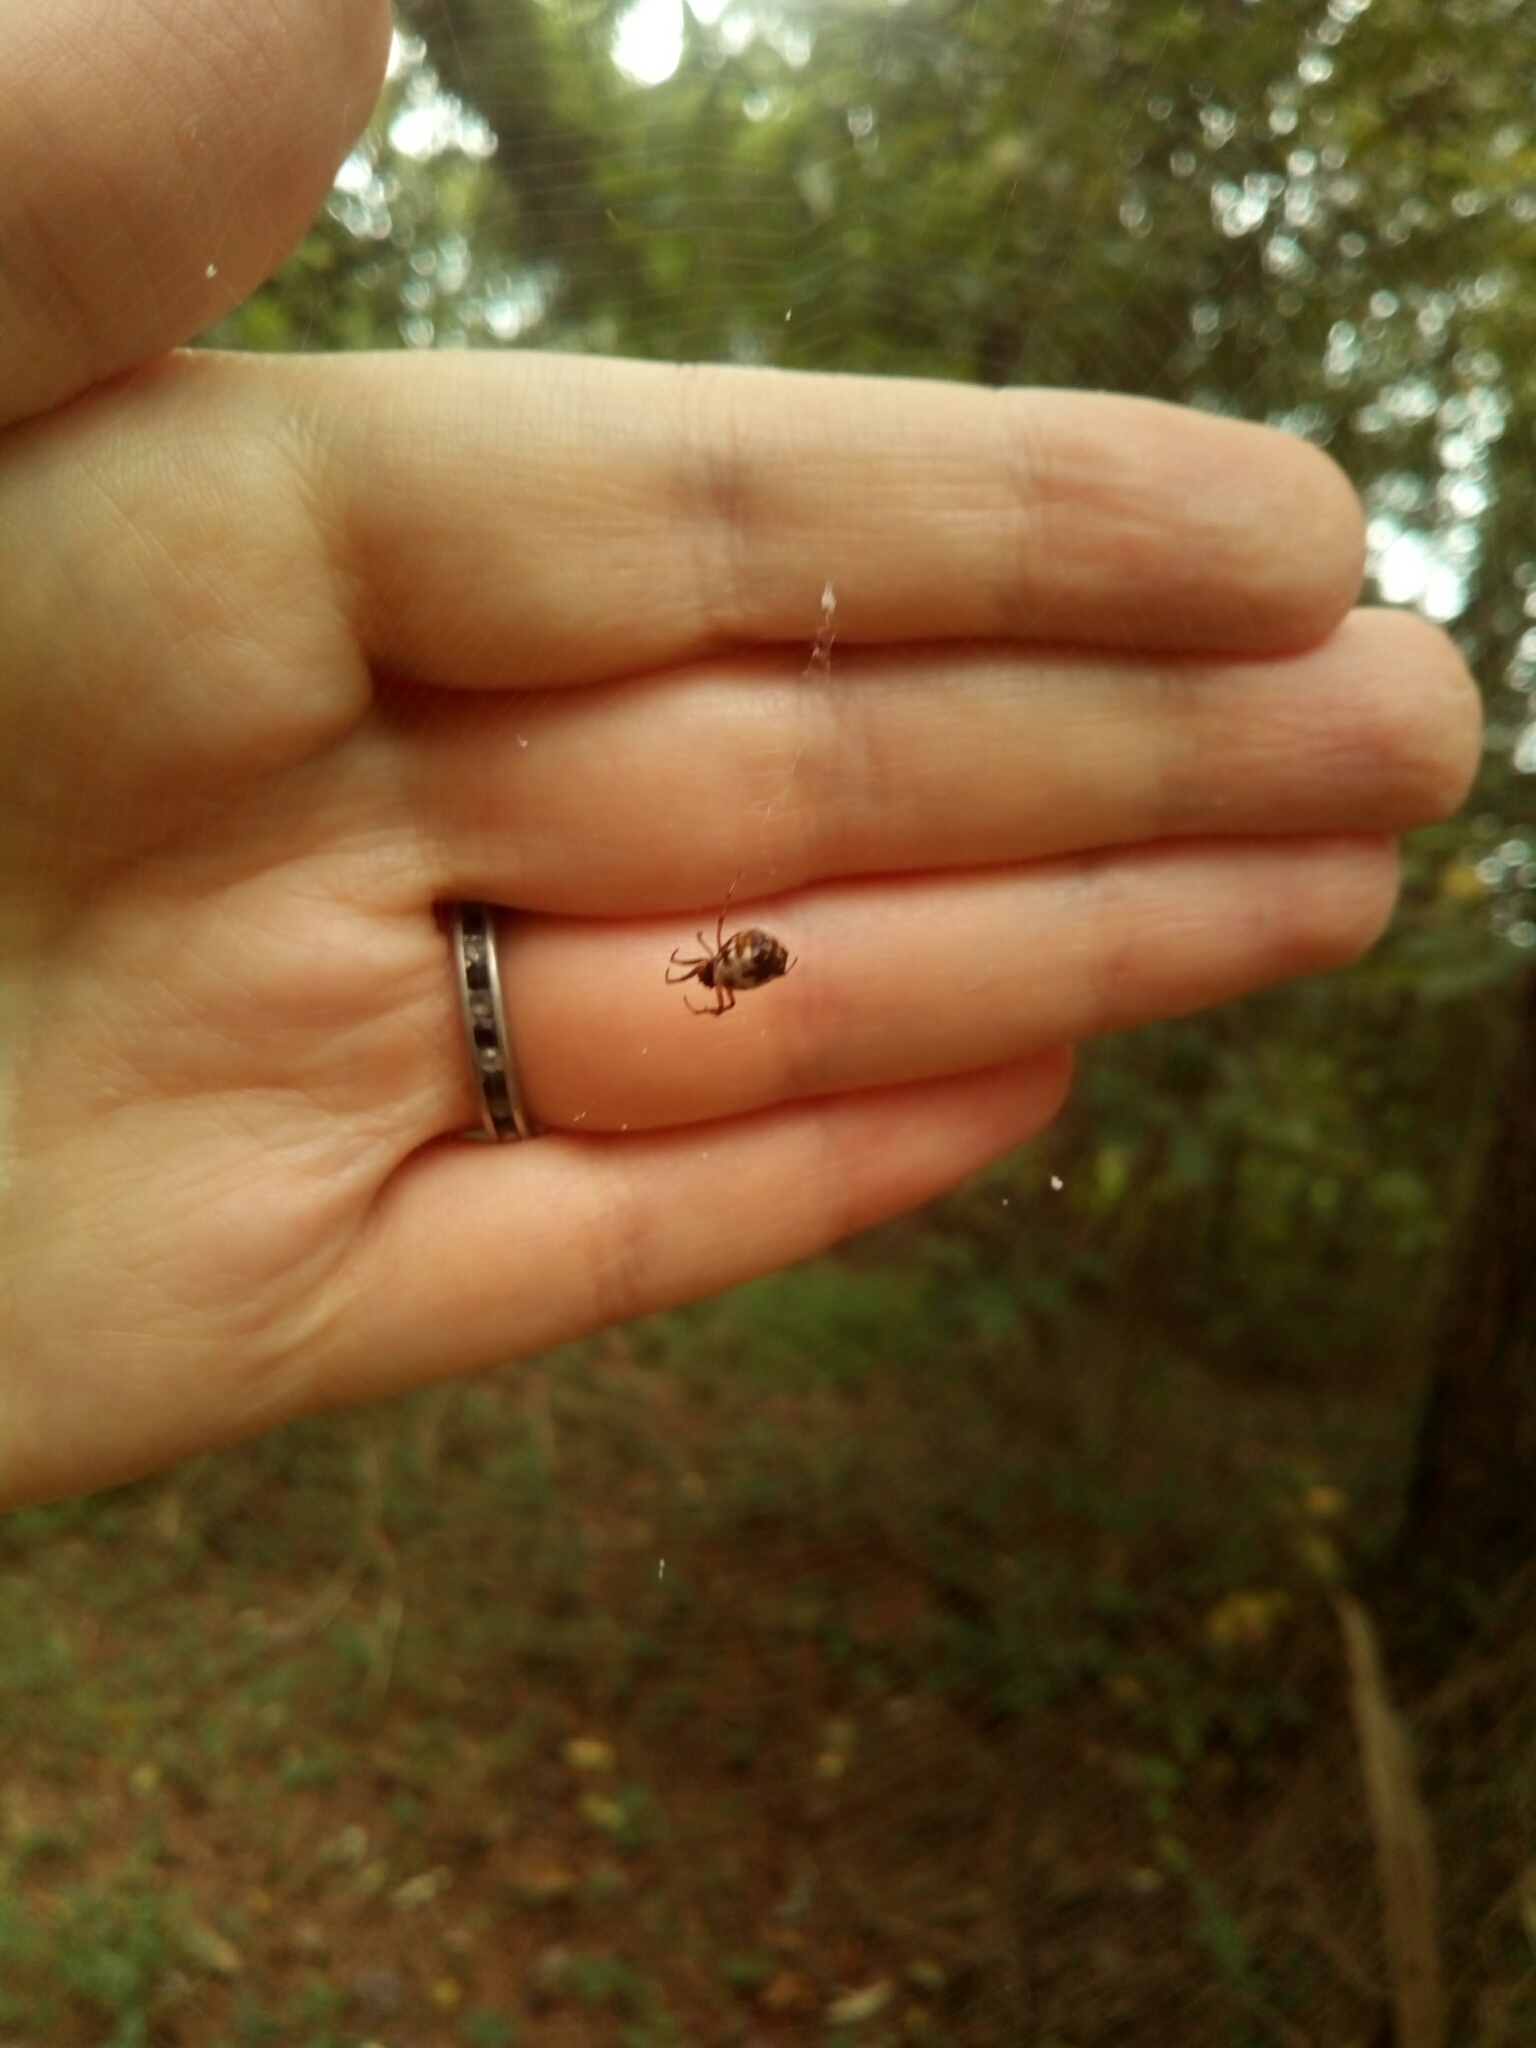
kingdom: Animalia
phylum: Arthropoda
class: Arachnida
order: Araneae
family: Araneidae
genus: Micrathena
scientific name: Micrathena mitrata
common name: Orb weavers
